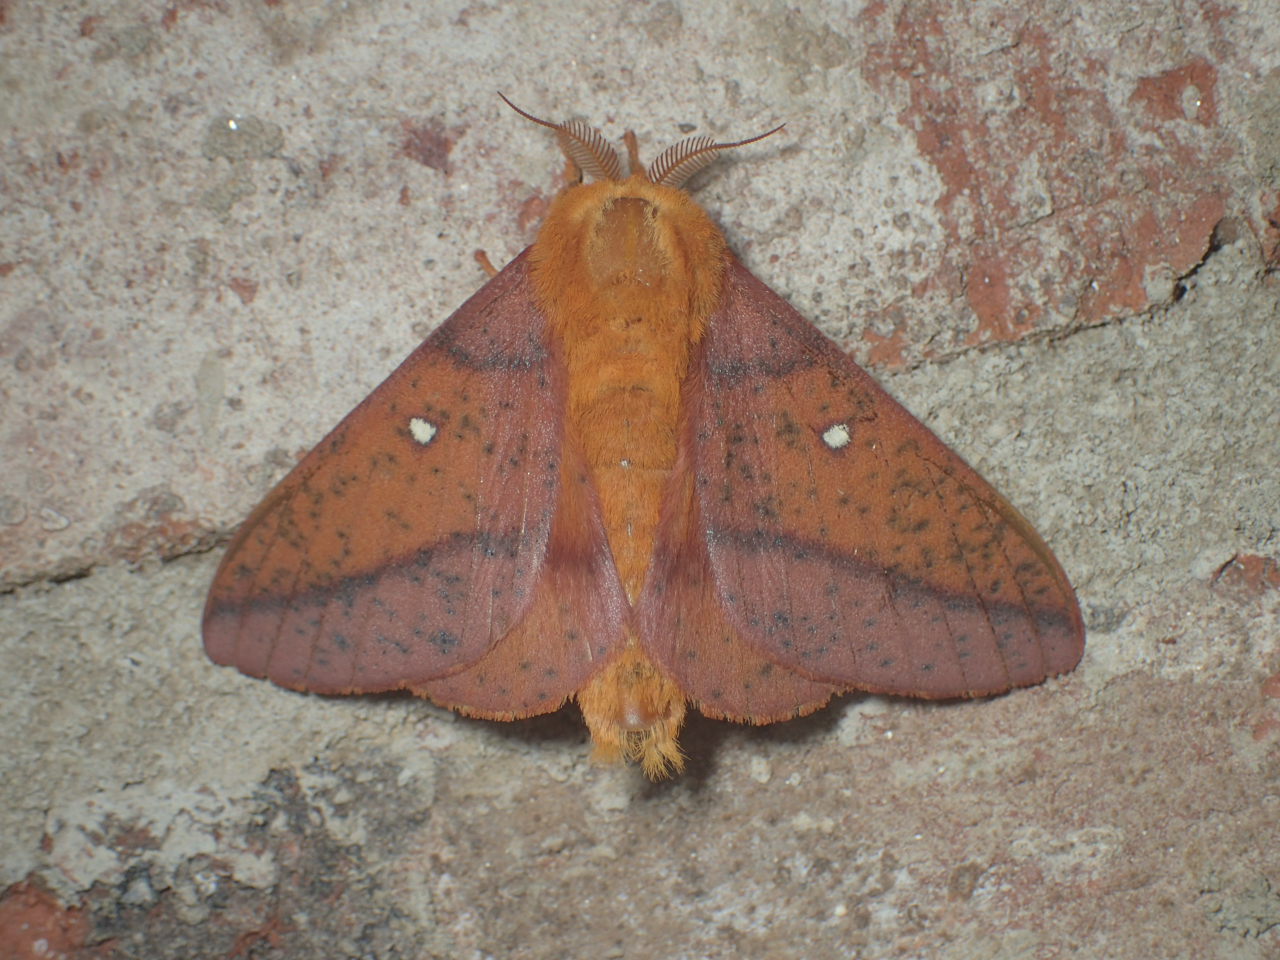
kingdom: Animalia
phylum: Arthropoda
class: Insecta
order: Lepidoptera
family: Saturniidae
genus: Anisota
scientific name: Anisota stigma
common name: Spiny oakworm moth
